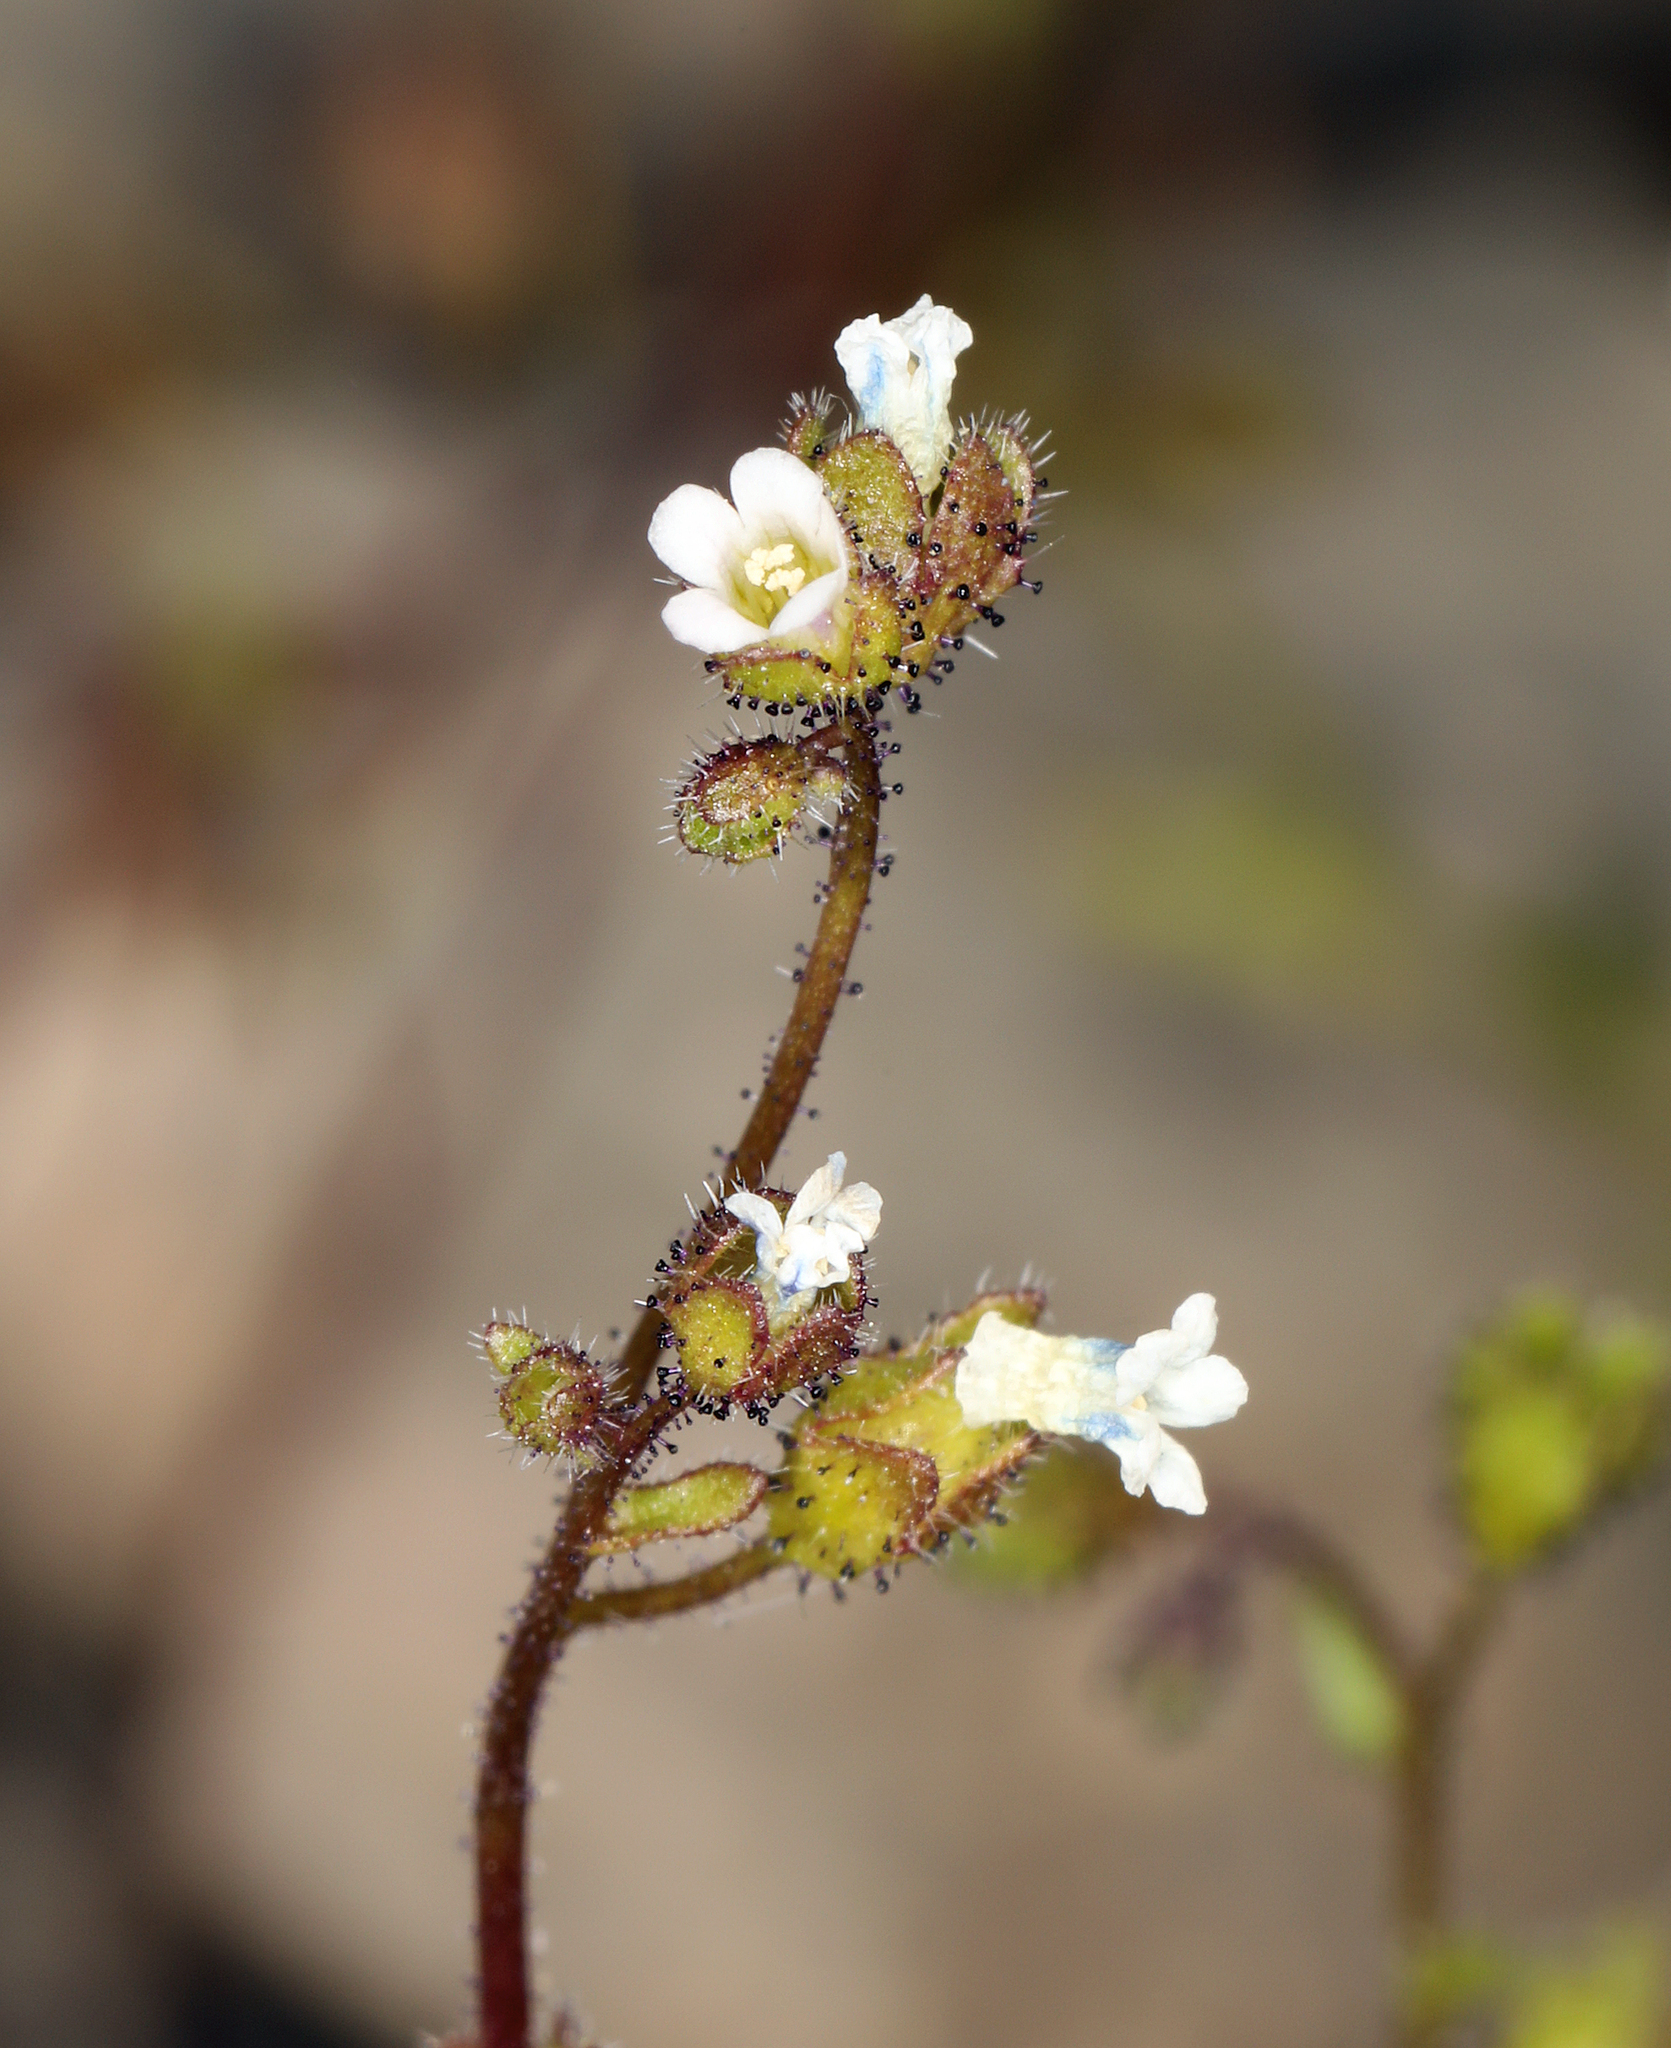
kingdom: Plantae
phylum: Tracheophyta
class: Magnoliopsida
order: Boraginales
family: Hydrophyllaceae
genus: Eucrypta
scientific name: Eucrypta micrantha
